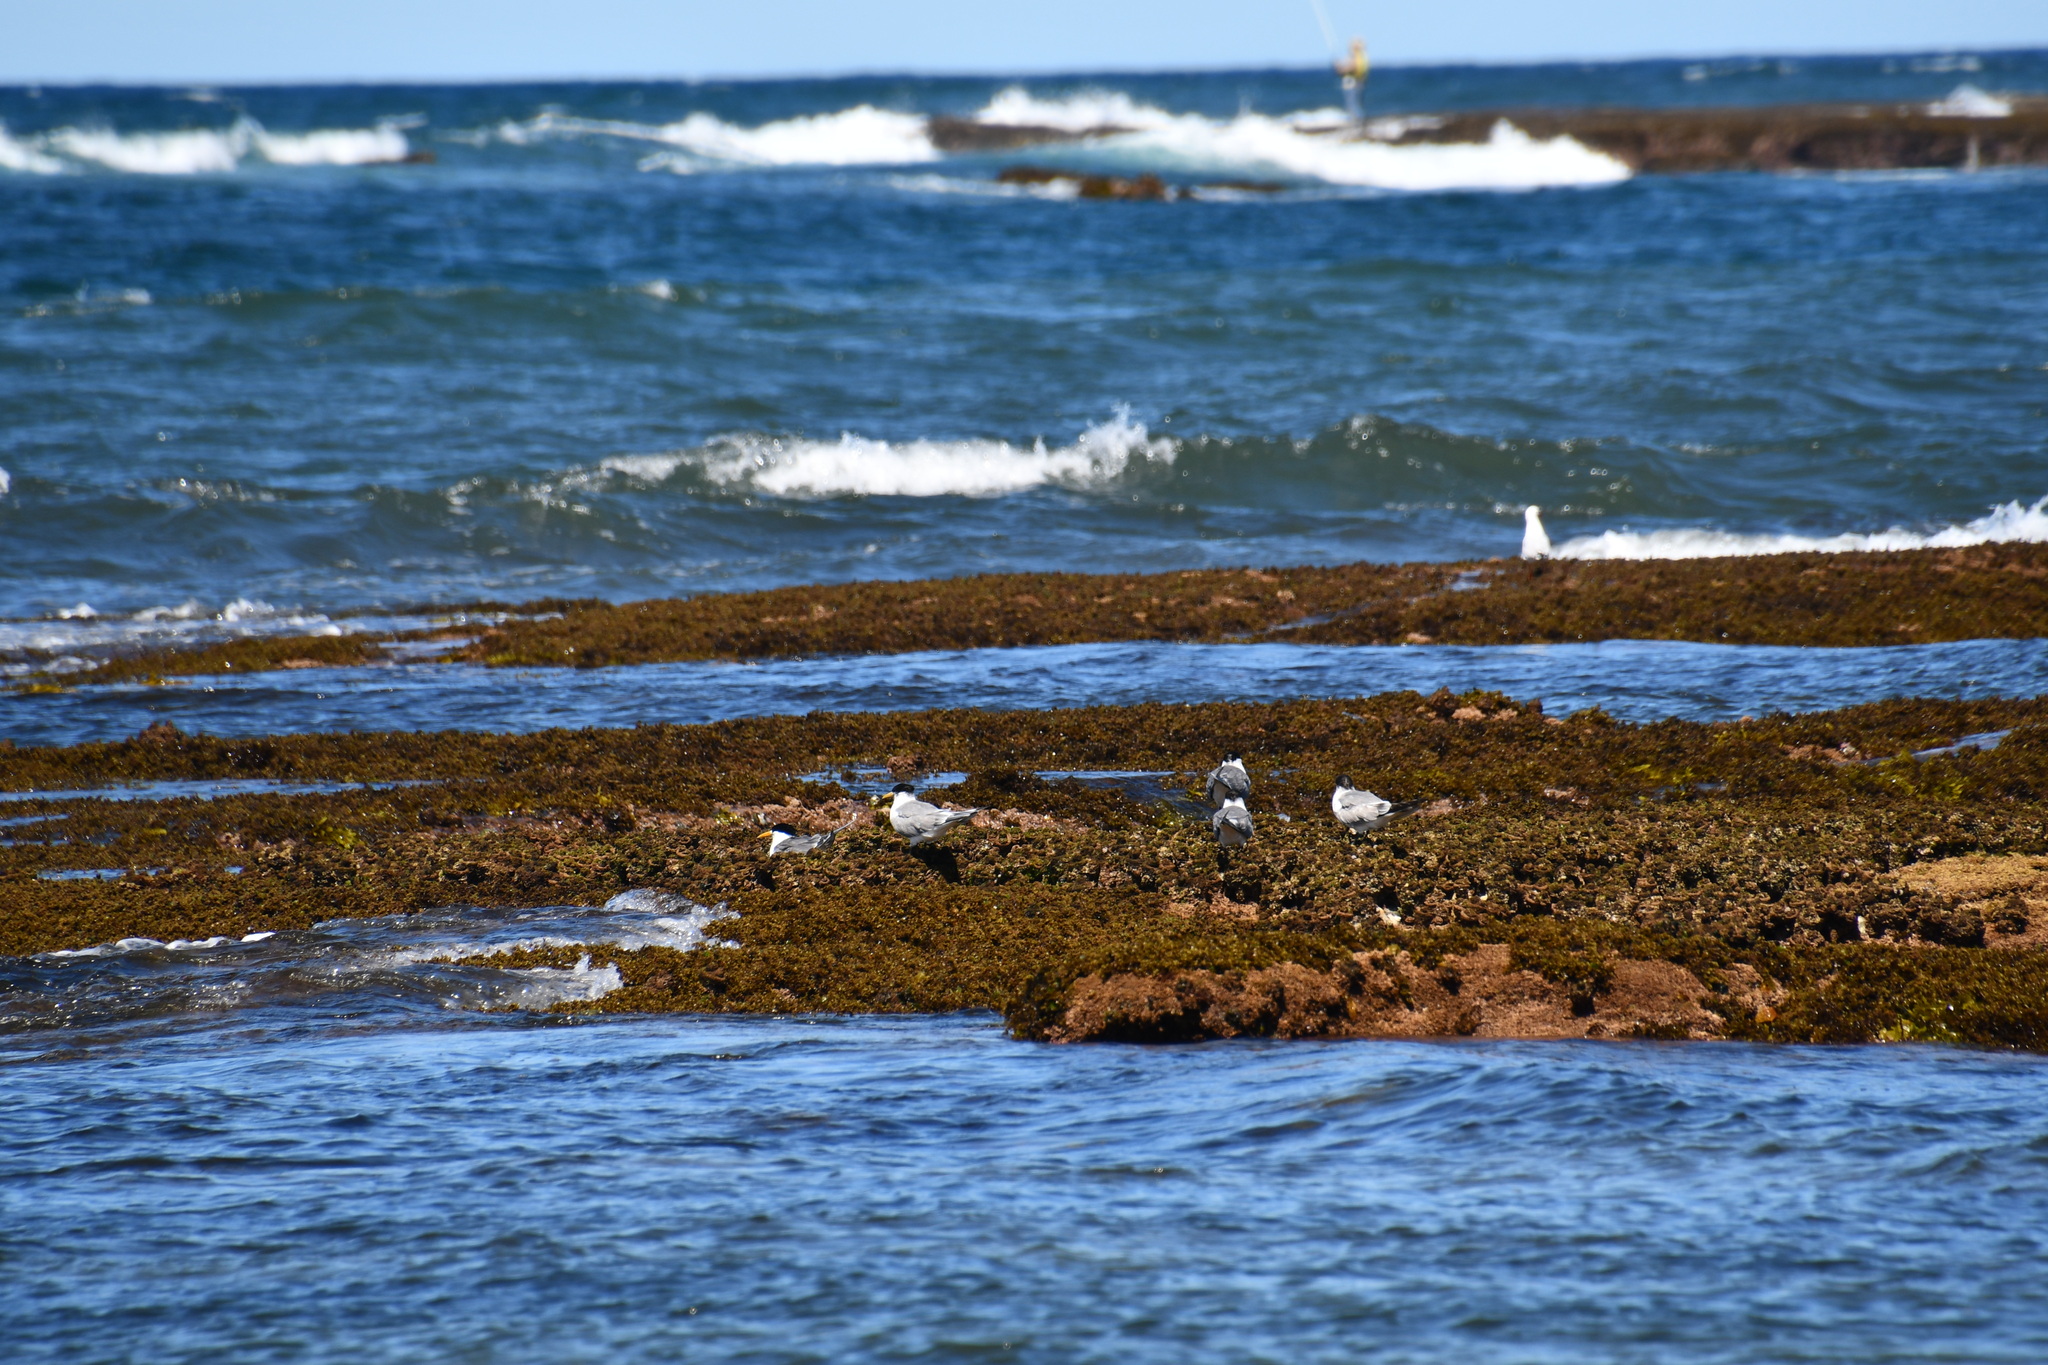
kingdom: Animalia
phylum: Chordata
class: Aves
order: Charadriiformes
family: Laridae
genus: Thalasseus
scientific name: Thalasseus bergii
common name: Greater crested tern
